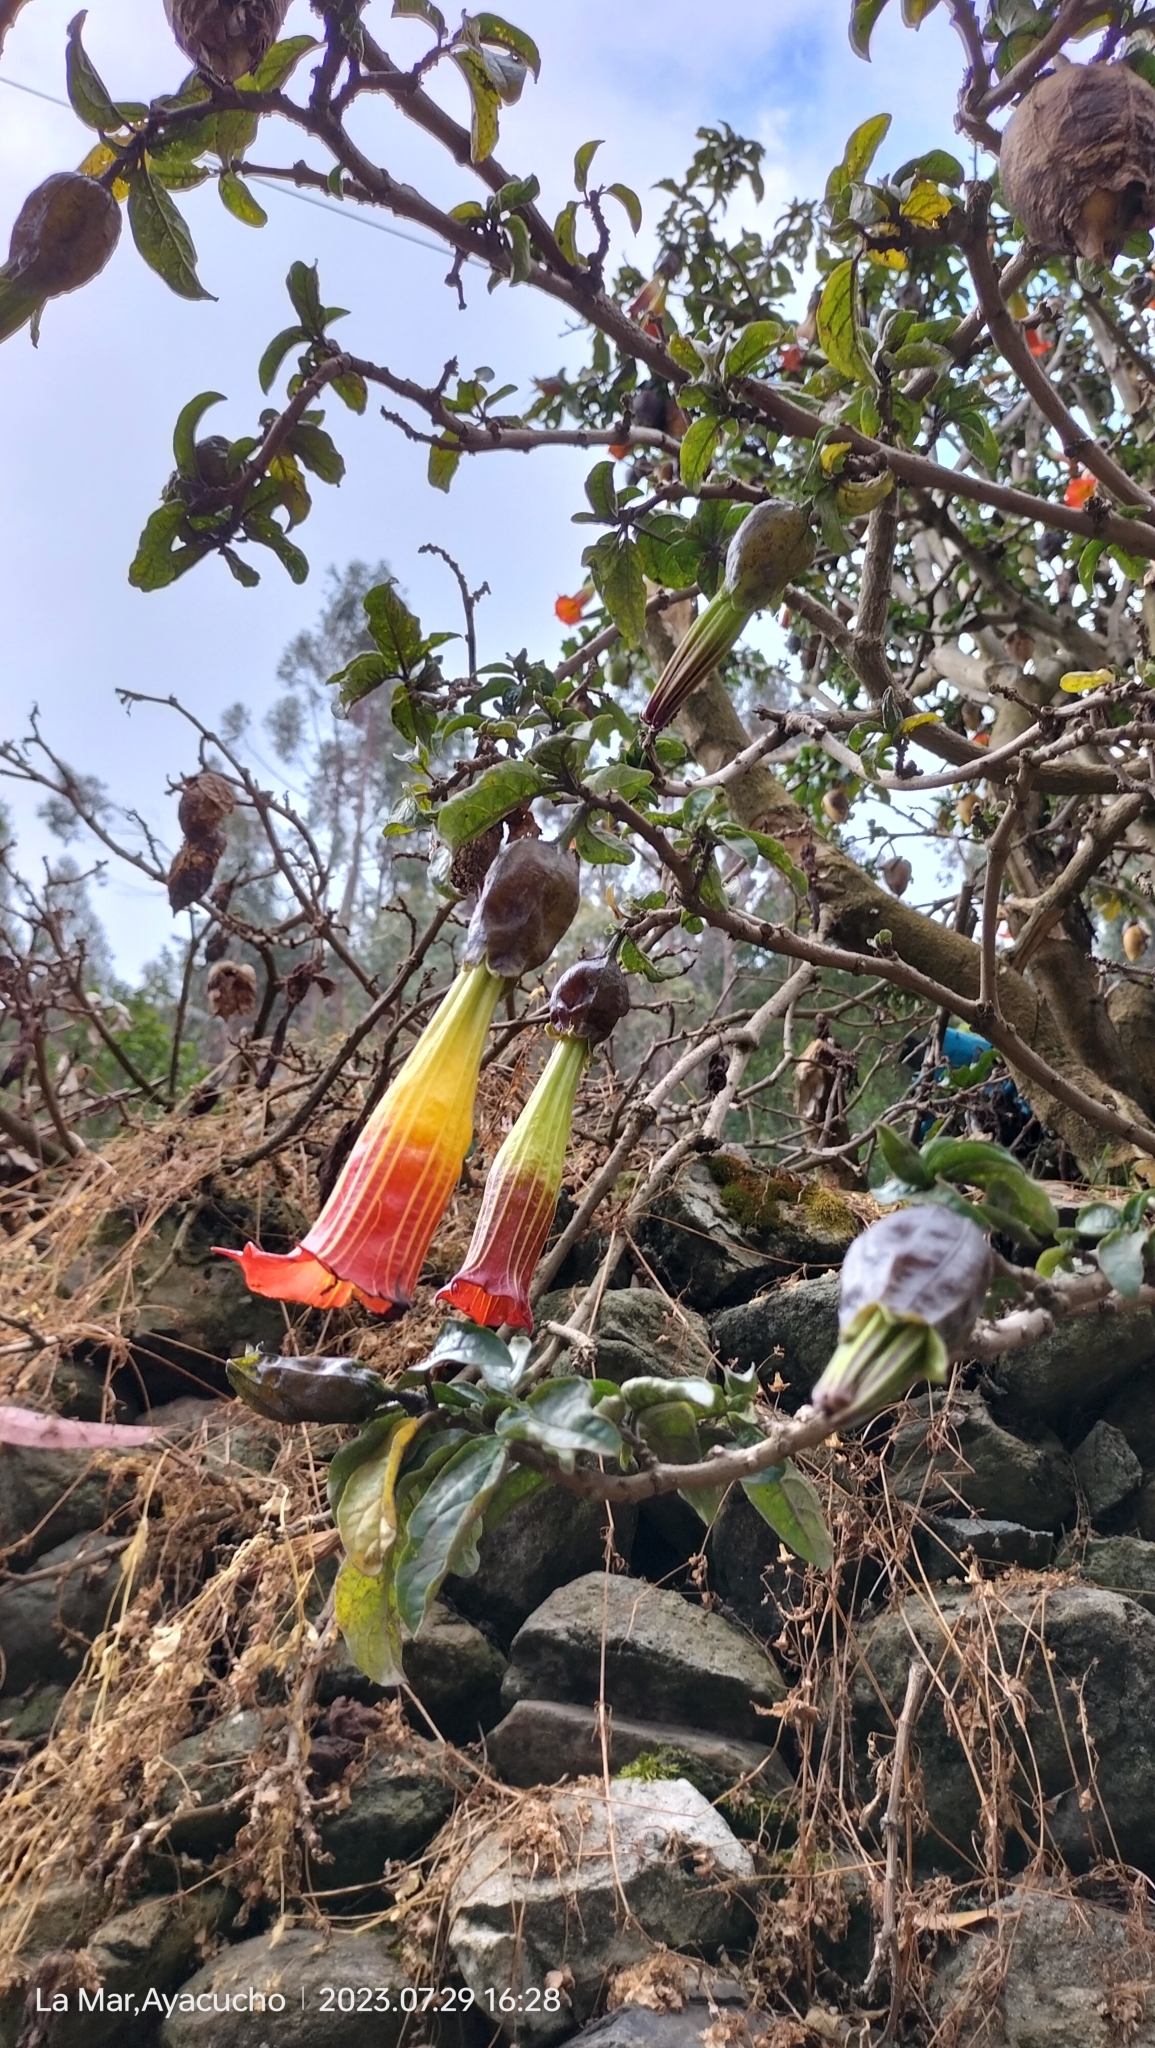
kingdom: Plantae
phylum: Tracheophyta
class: Magnoliopsida
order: Solanales
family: Solanaceae
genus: Brugmansia
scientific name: Brugmansia sanguinea
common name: Red floripontio
